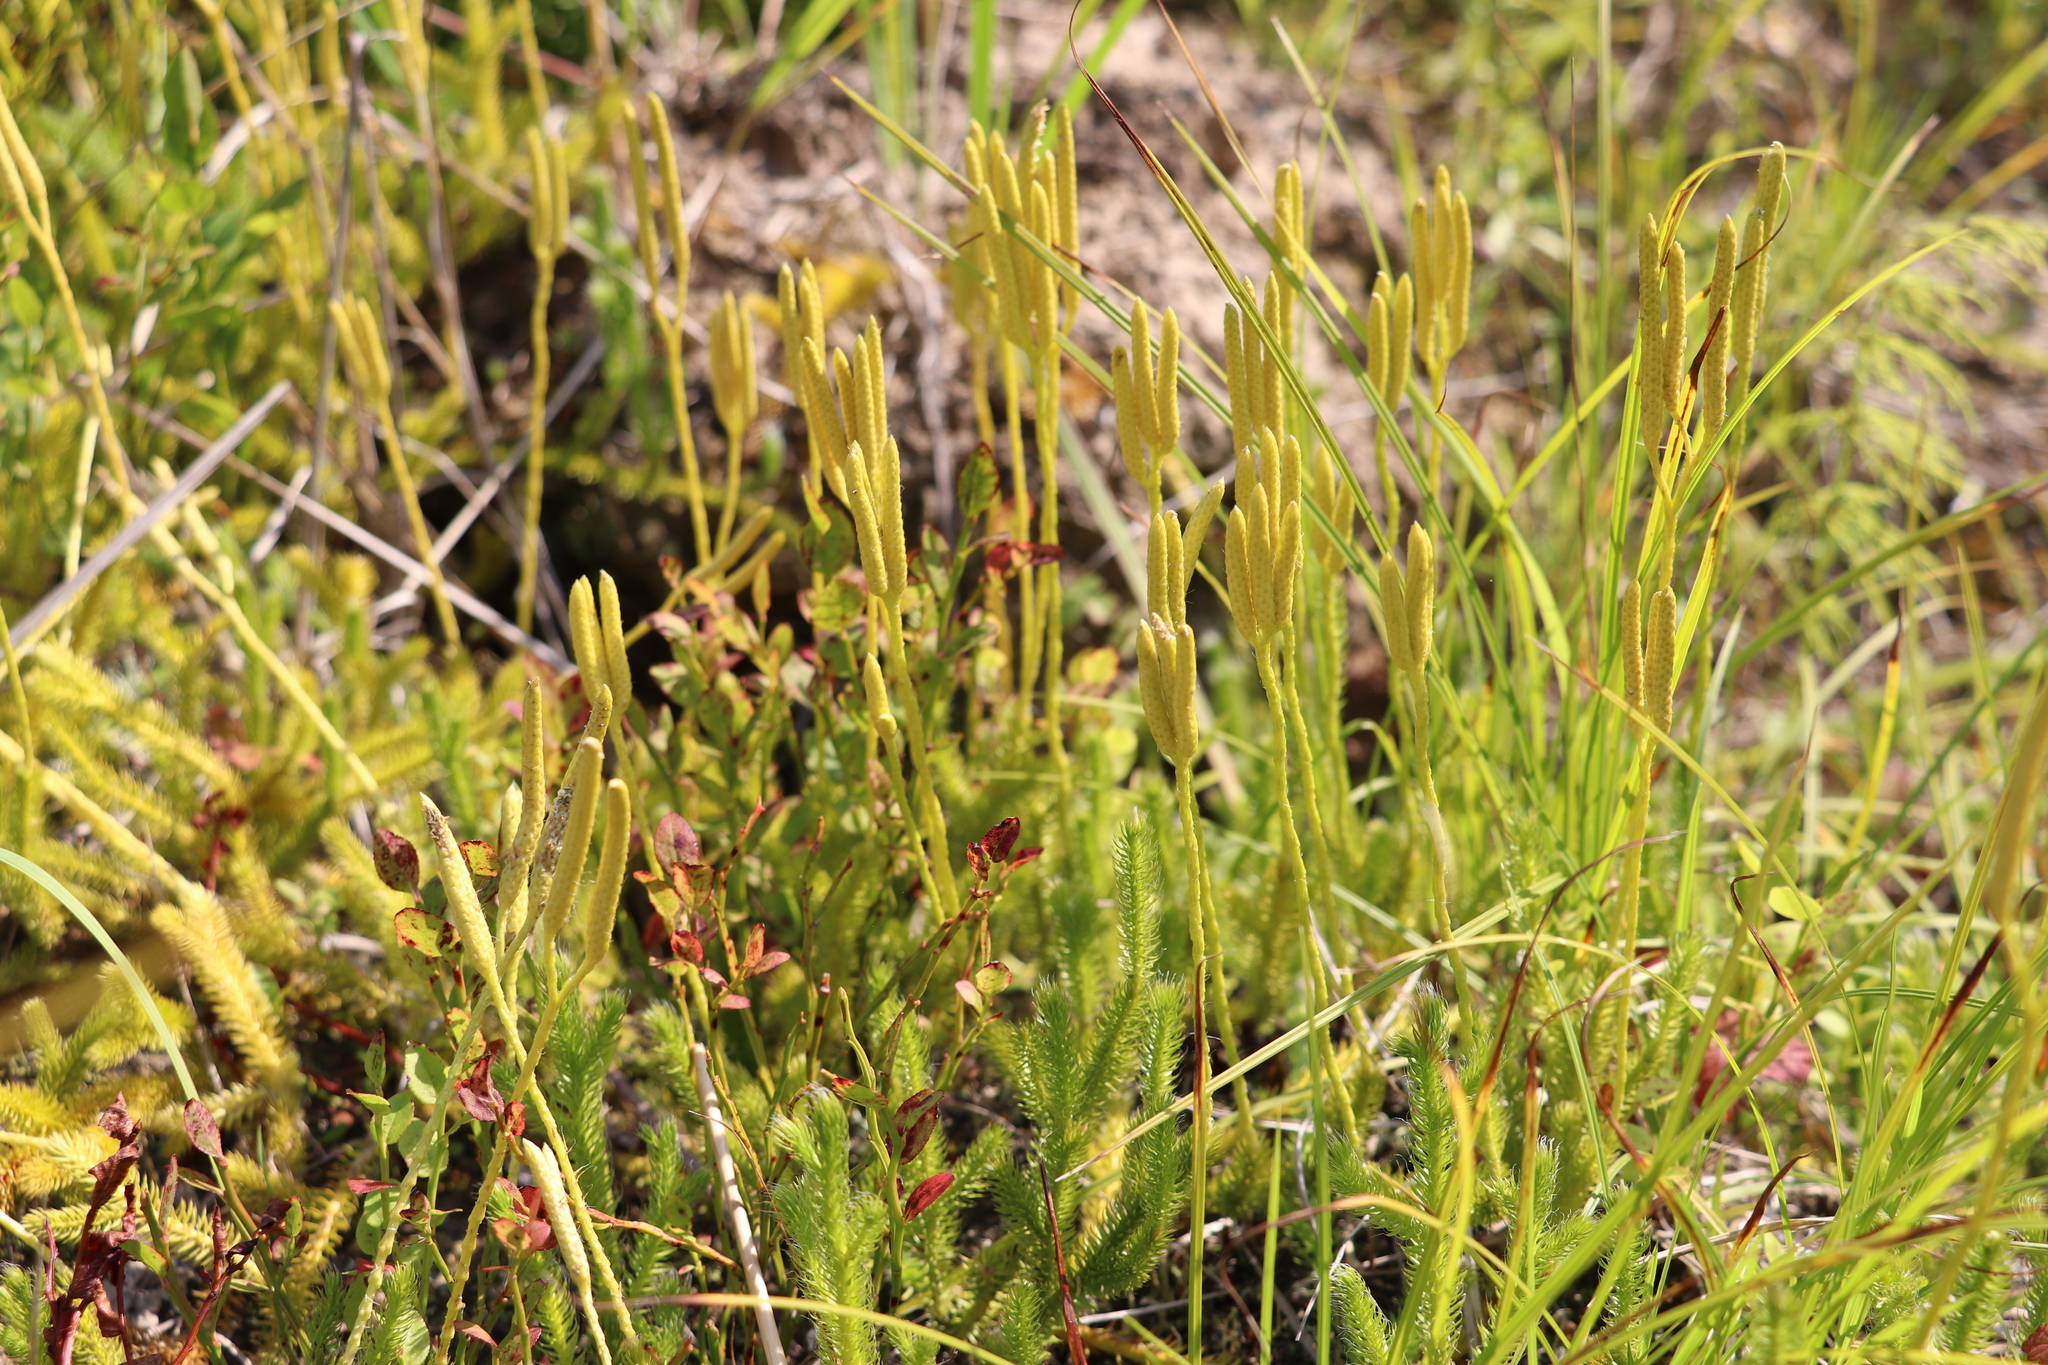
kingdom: Plantae
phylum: Tracheophyta
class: Lycopodiopsida
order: Lycopodiales
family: Lycopodiaceae
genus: Lycopodium
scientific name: Lycopodium clavatum
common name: Stag's-horn clubmoss
